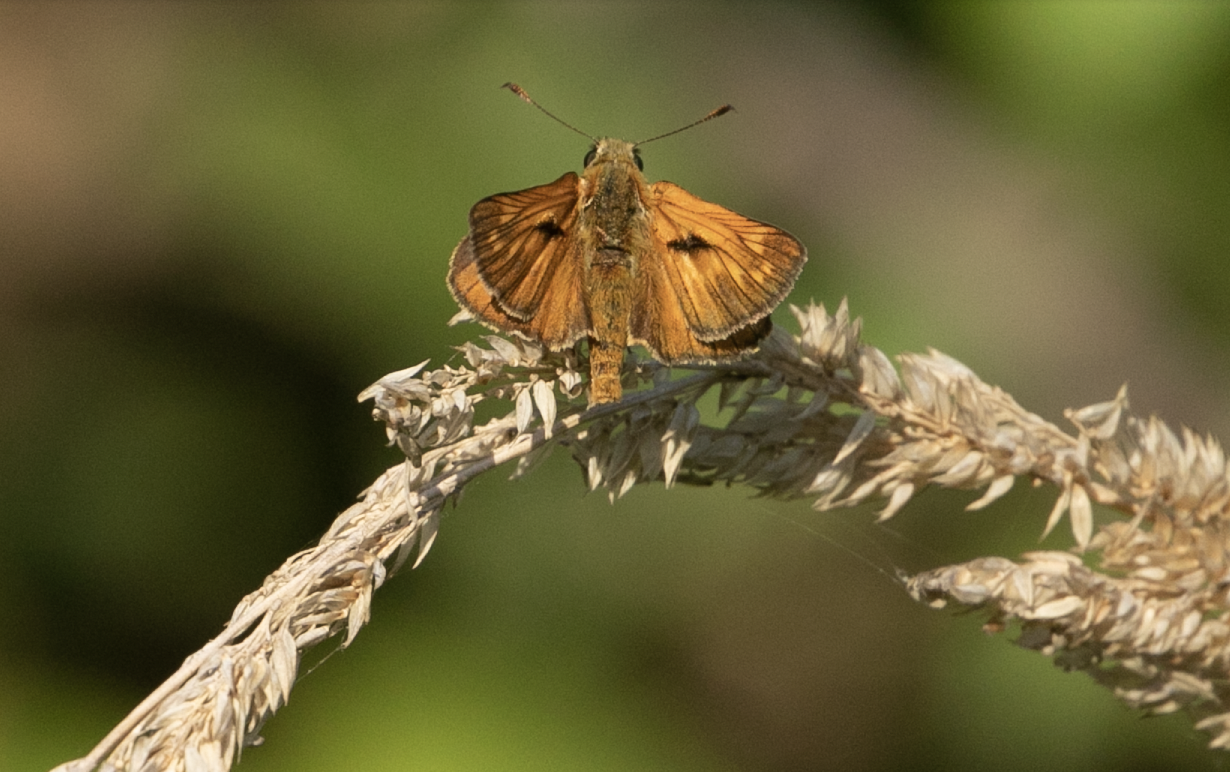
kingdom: Animalia
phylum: Arthropoda
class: Insecta
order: Lepidoptera
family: Hesperiidae
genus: Ochlodes
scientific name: Ochlodes venata
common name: Large skipper
